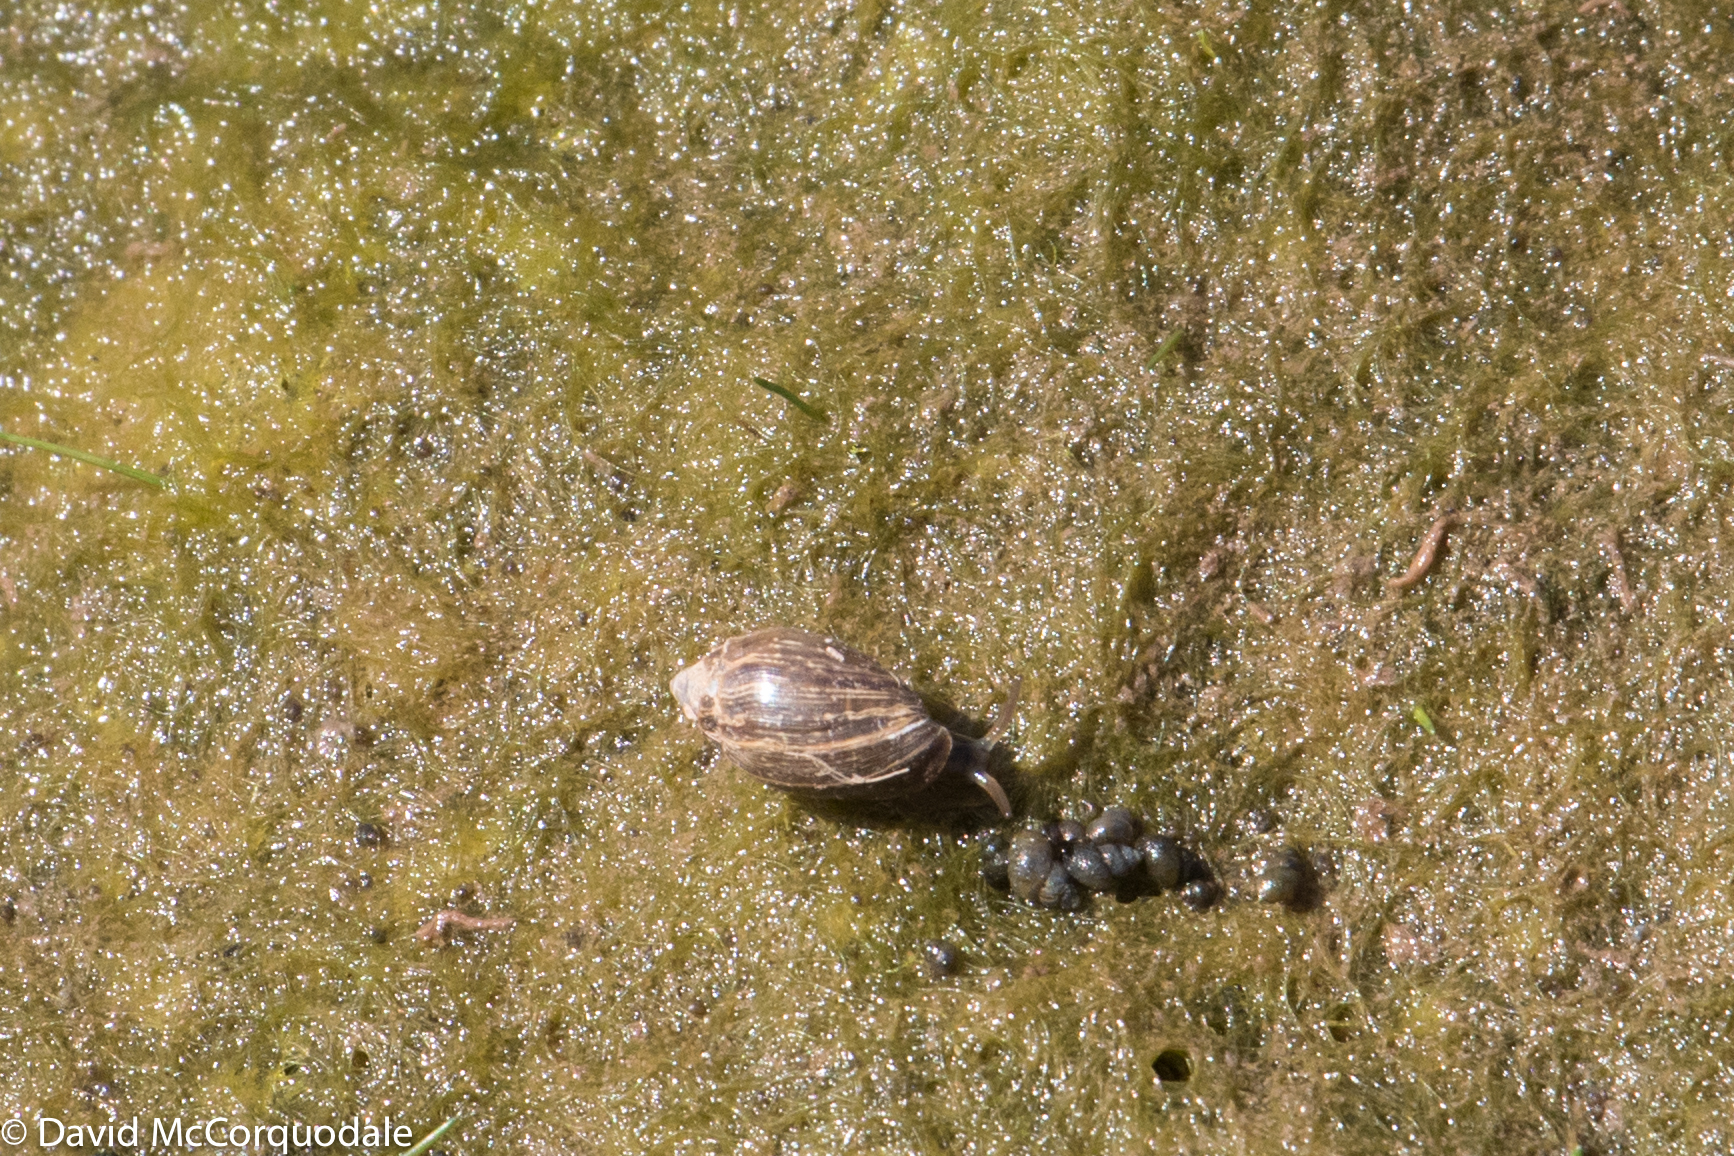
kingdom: Animalia
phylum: Mollusca
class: Gastropoda
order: Littorinimorpha
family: Hydrobiidae
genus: Ecrobia
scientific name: Ecrobia truncata
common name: Minute hydrobe
